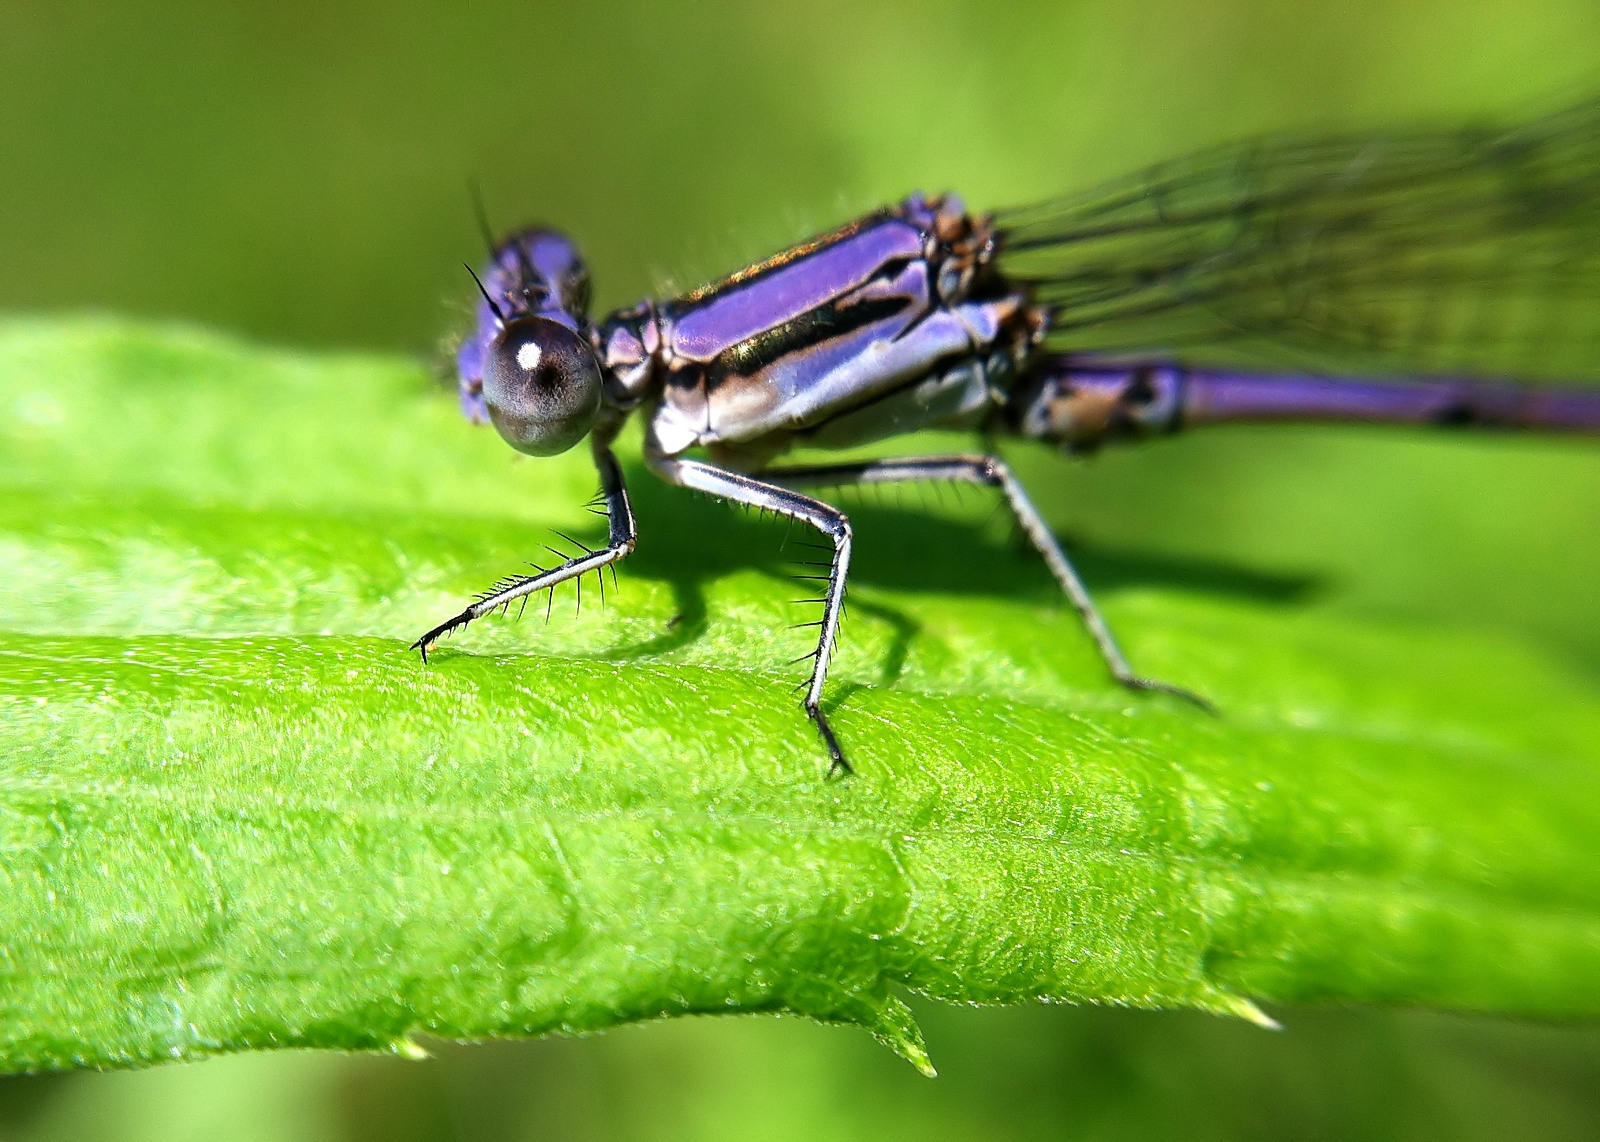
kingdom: Animalia
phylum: Arthropoda
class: Insecta
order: Odonata
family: Coenagrionidae
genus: Argia
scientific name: Argia fumipennis
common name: Variable dancer
